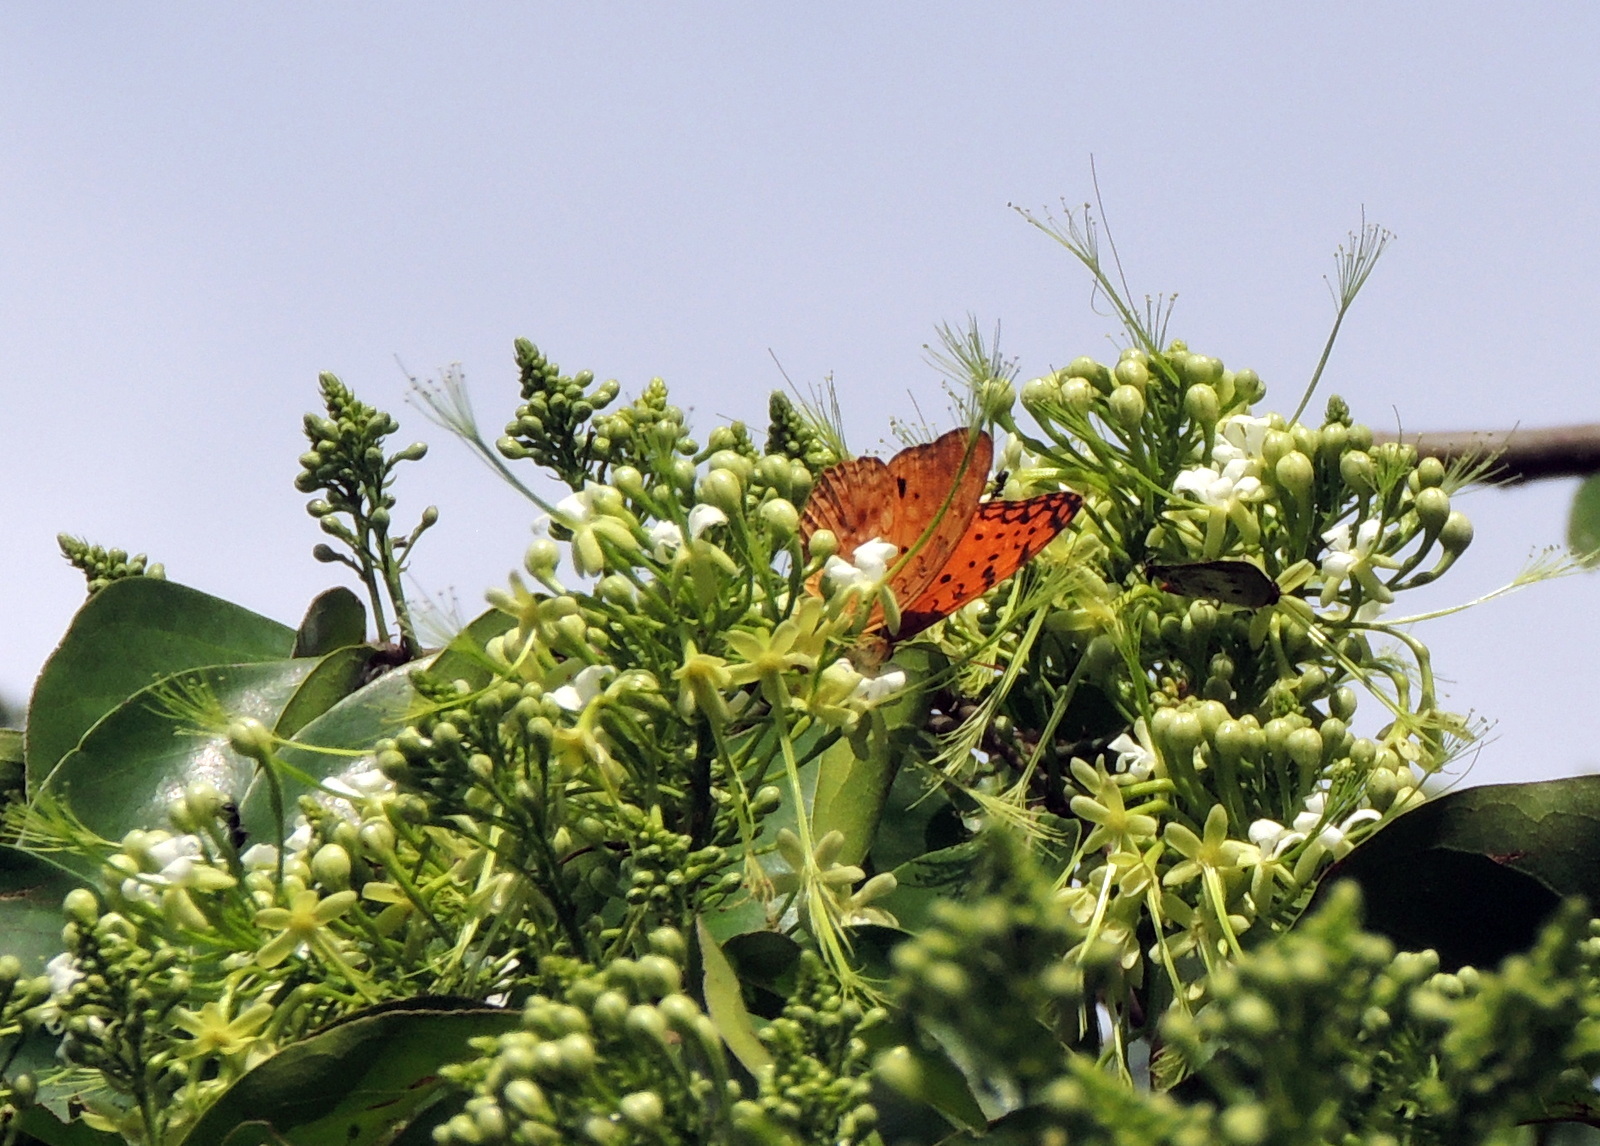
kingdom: Animalia
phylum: Arthropoda
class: Insecta
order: Lepidoptera
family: Nymphalidae
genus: Phalanta
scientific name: Phalanta phalantha
